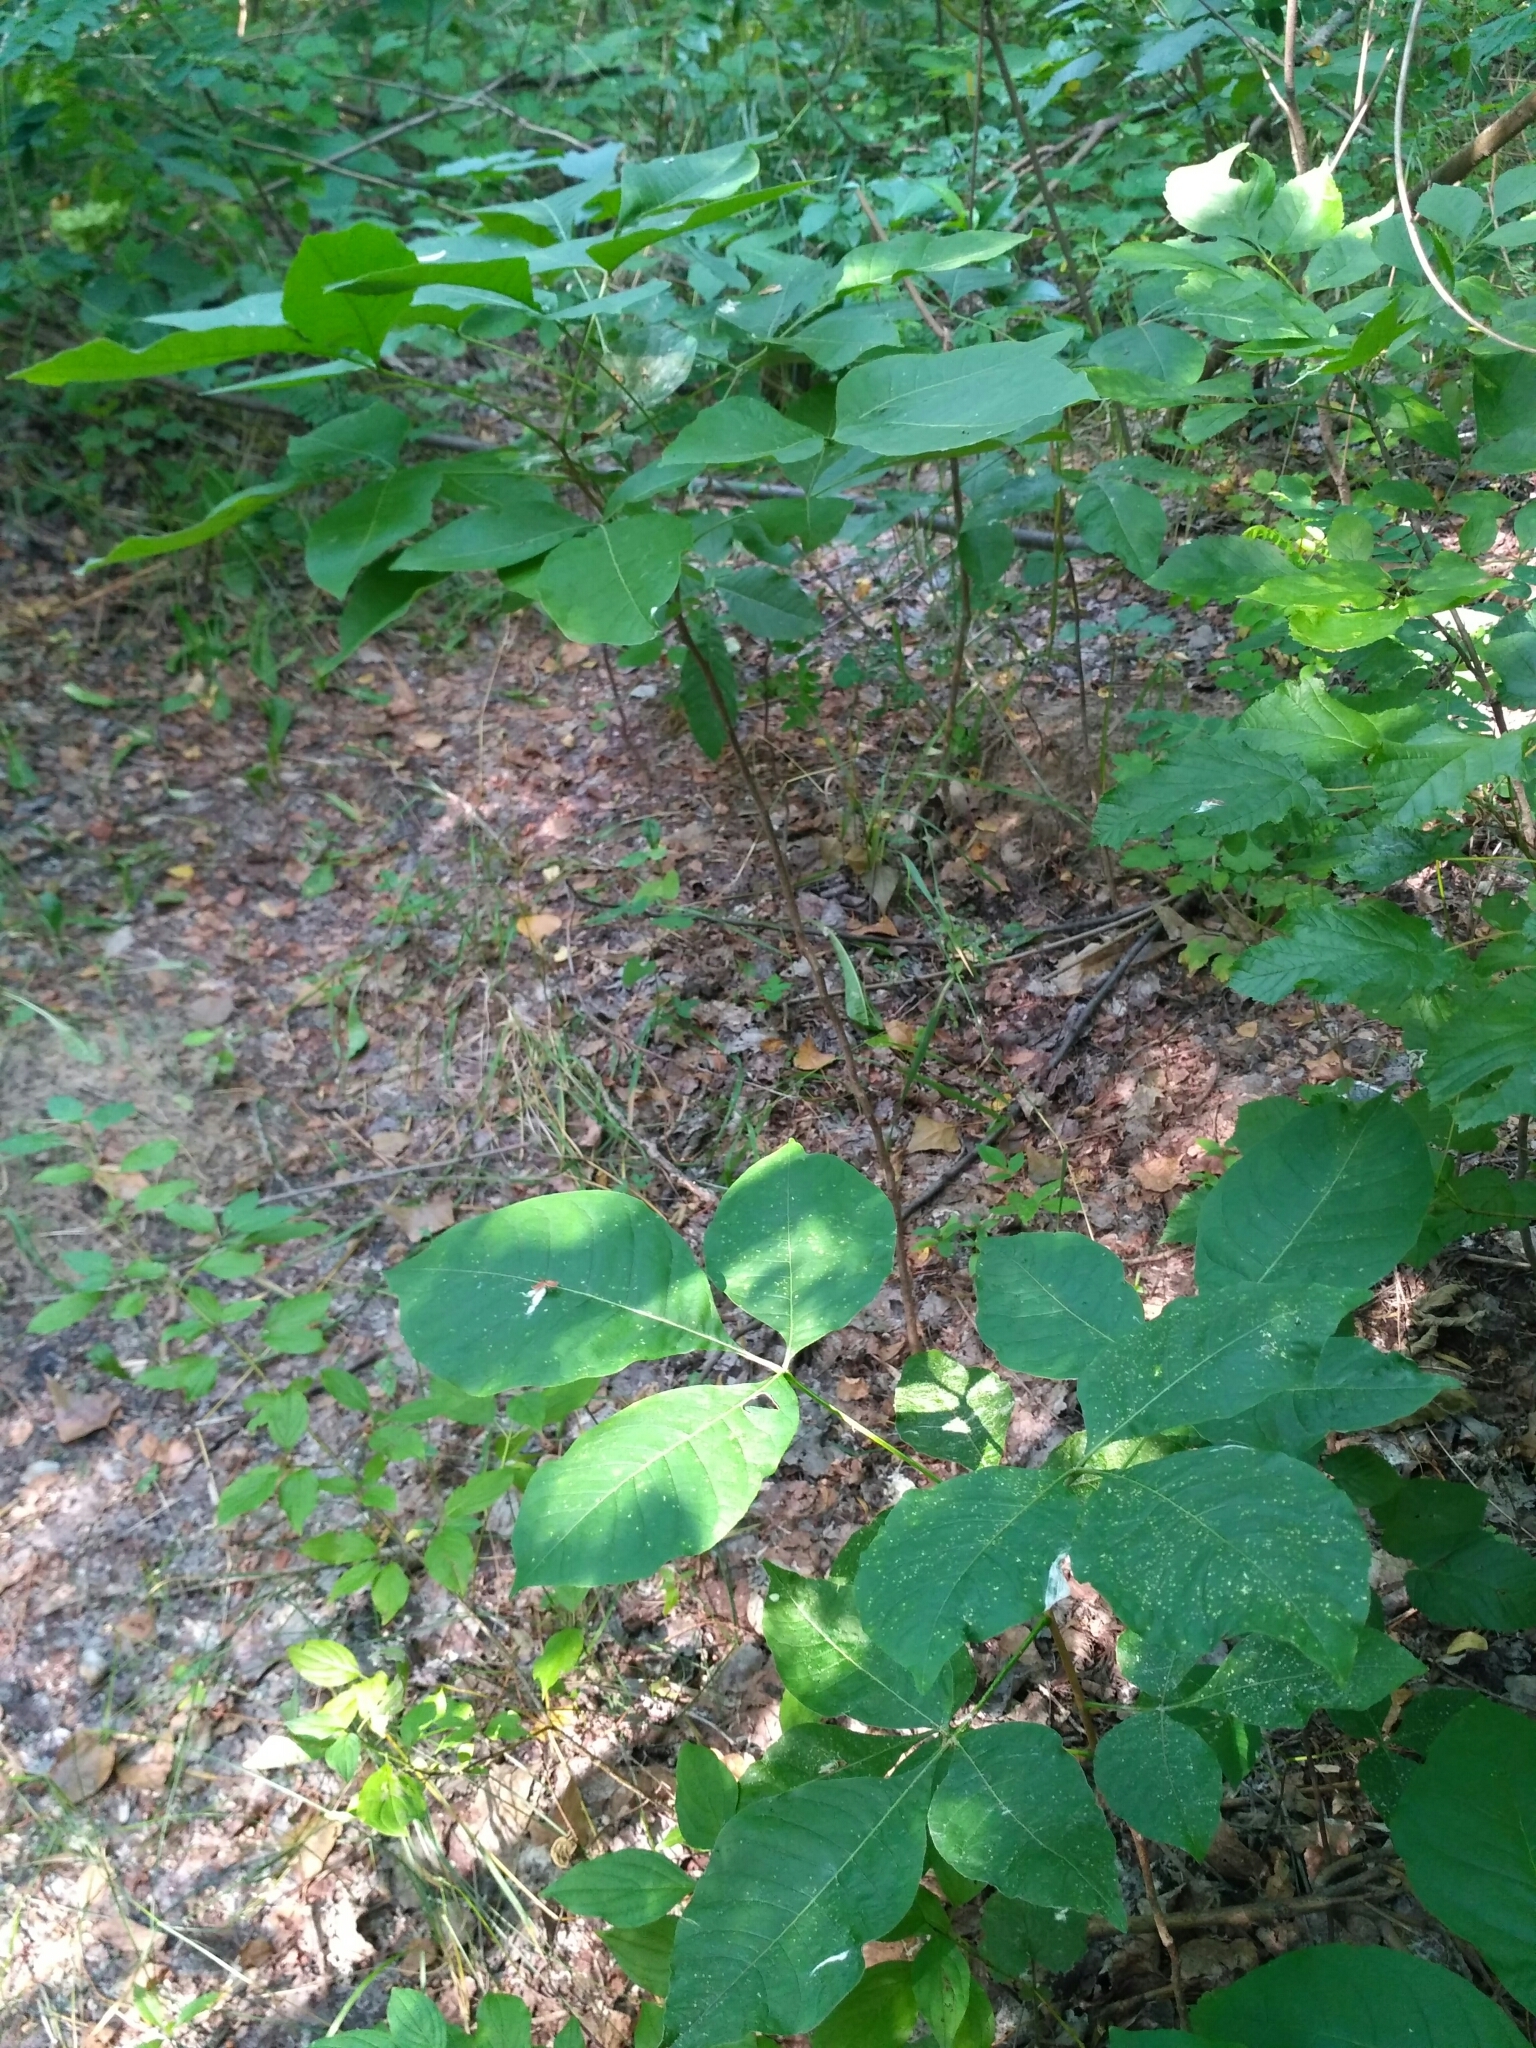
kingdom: Plantae
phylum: Tracheophyta
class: Magnoliopsida
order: Sapindales
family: Rutaceae
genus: Ptelea
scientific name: Ptelea trifoliata
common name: Common hop-tree
